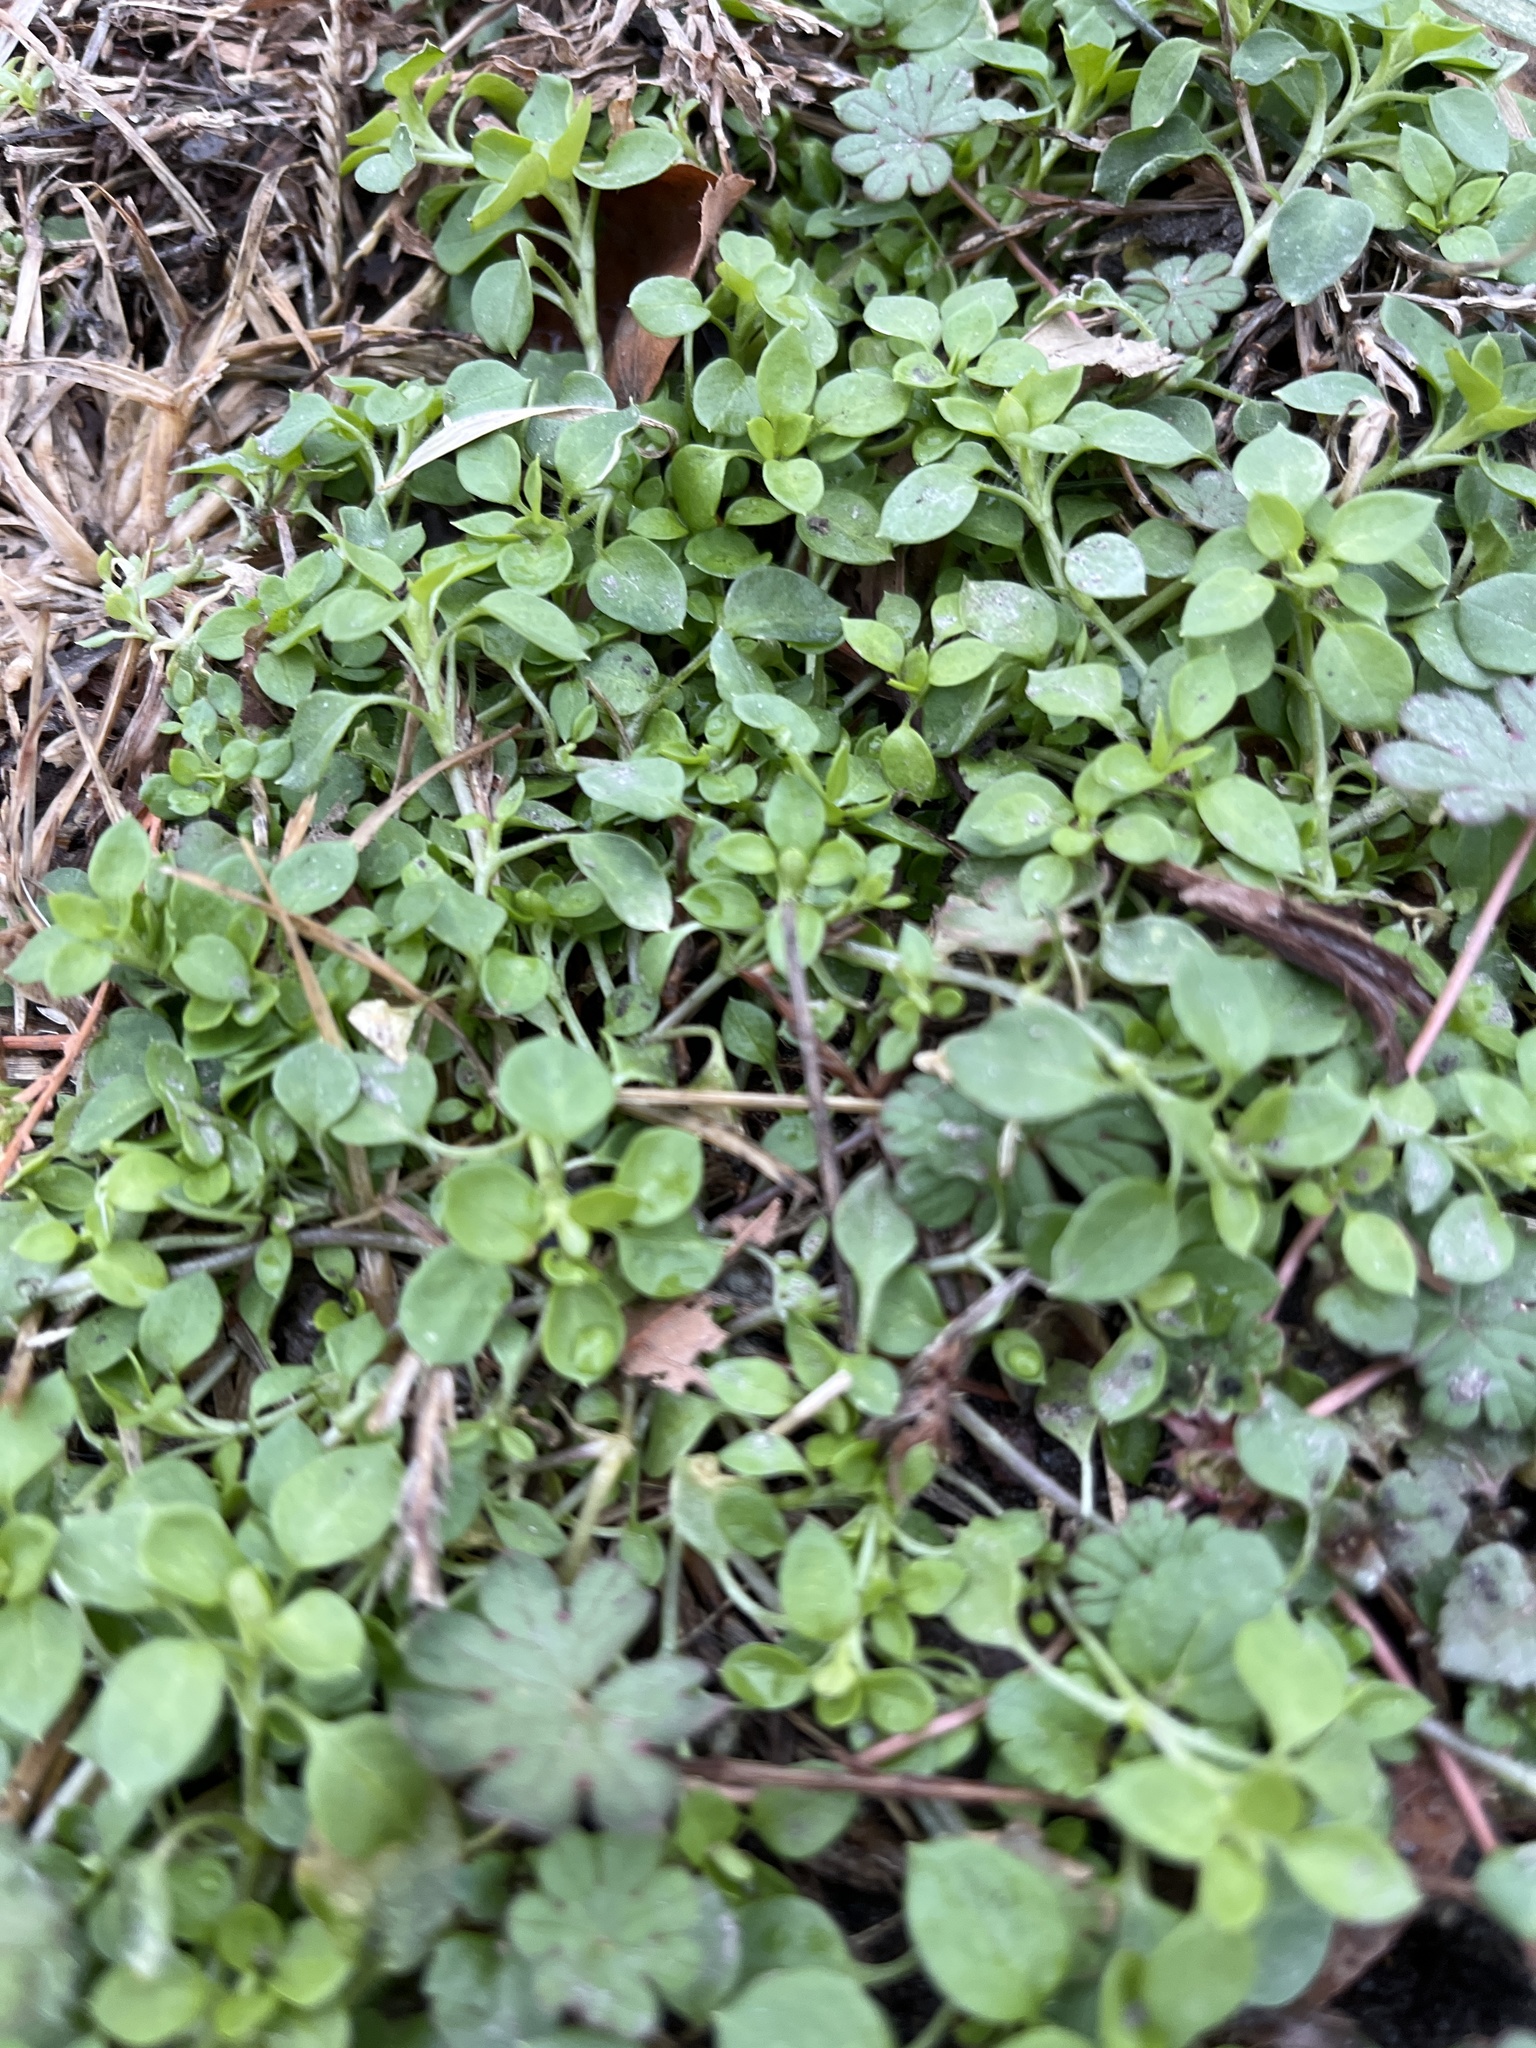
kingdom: Plantae
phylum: Tracheophyta
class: Magnoliopsida
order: Caryophyllales
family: Caryophyllaceae
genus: Stellaria
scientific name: Stellaria media
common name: Common chickweed
